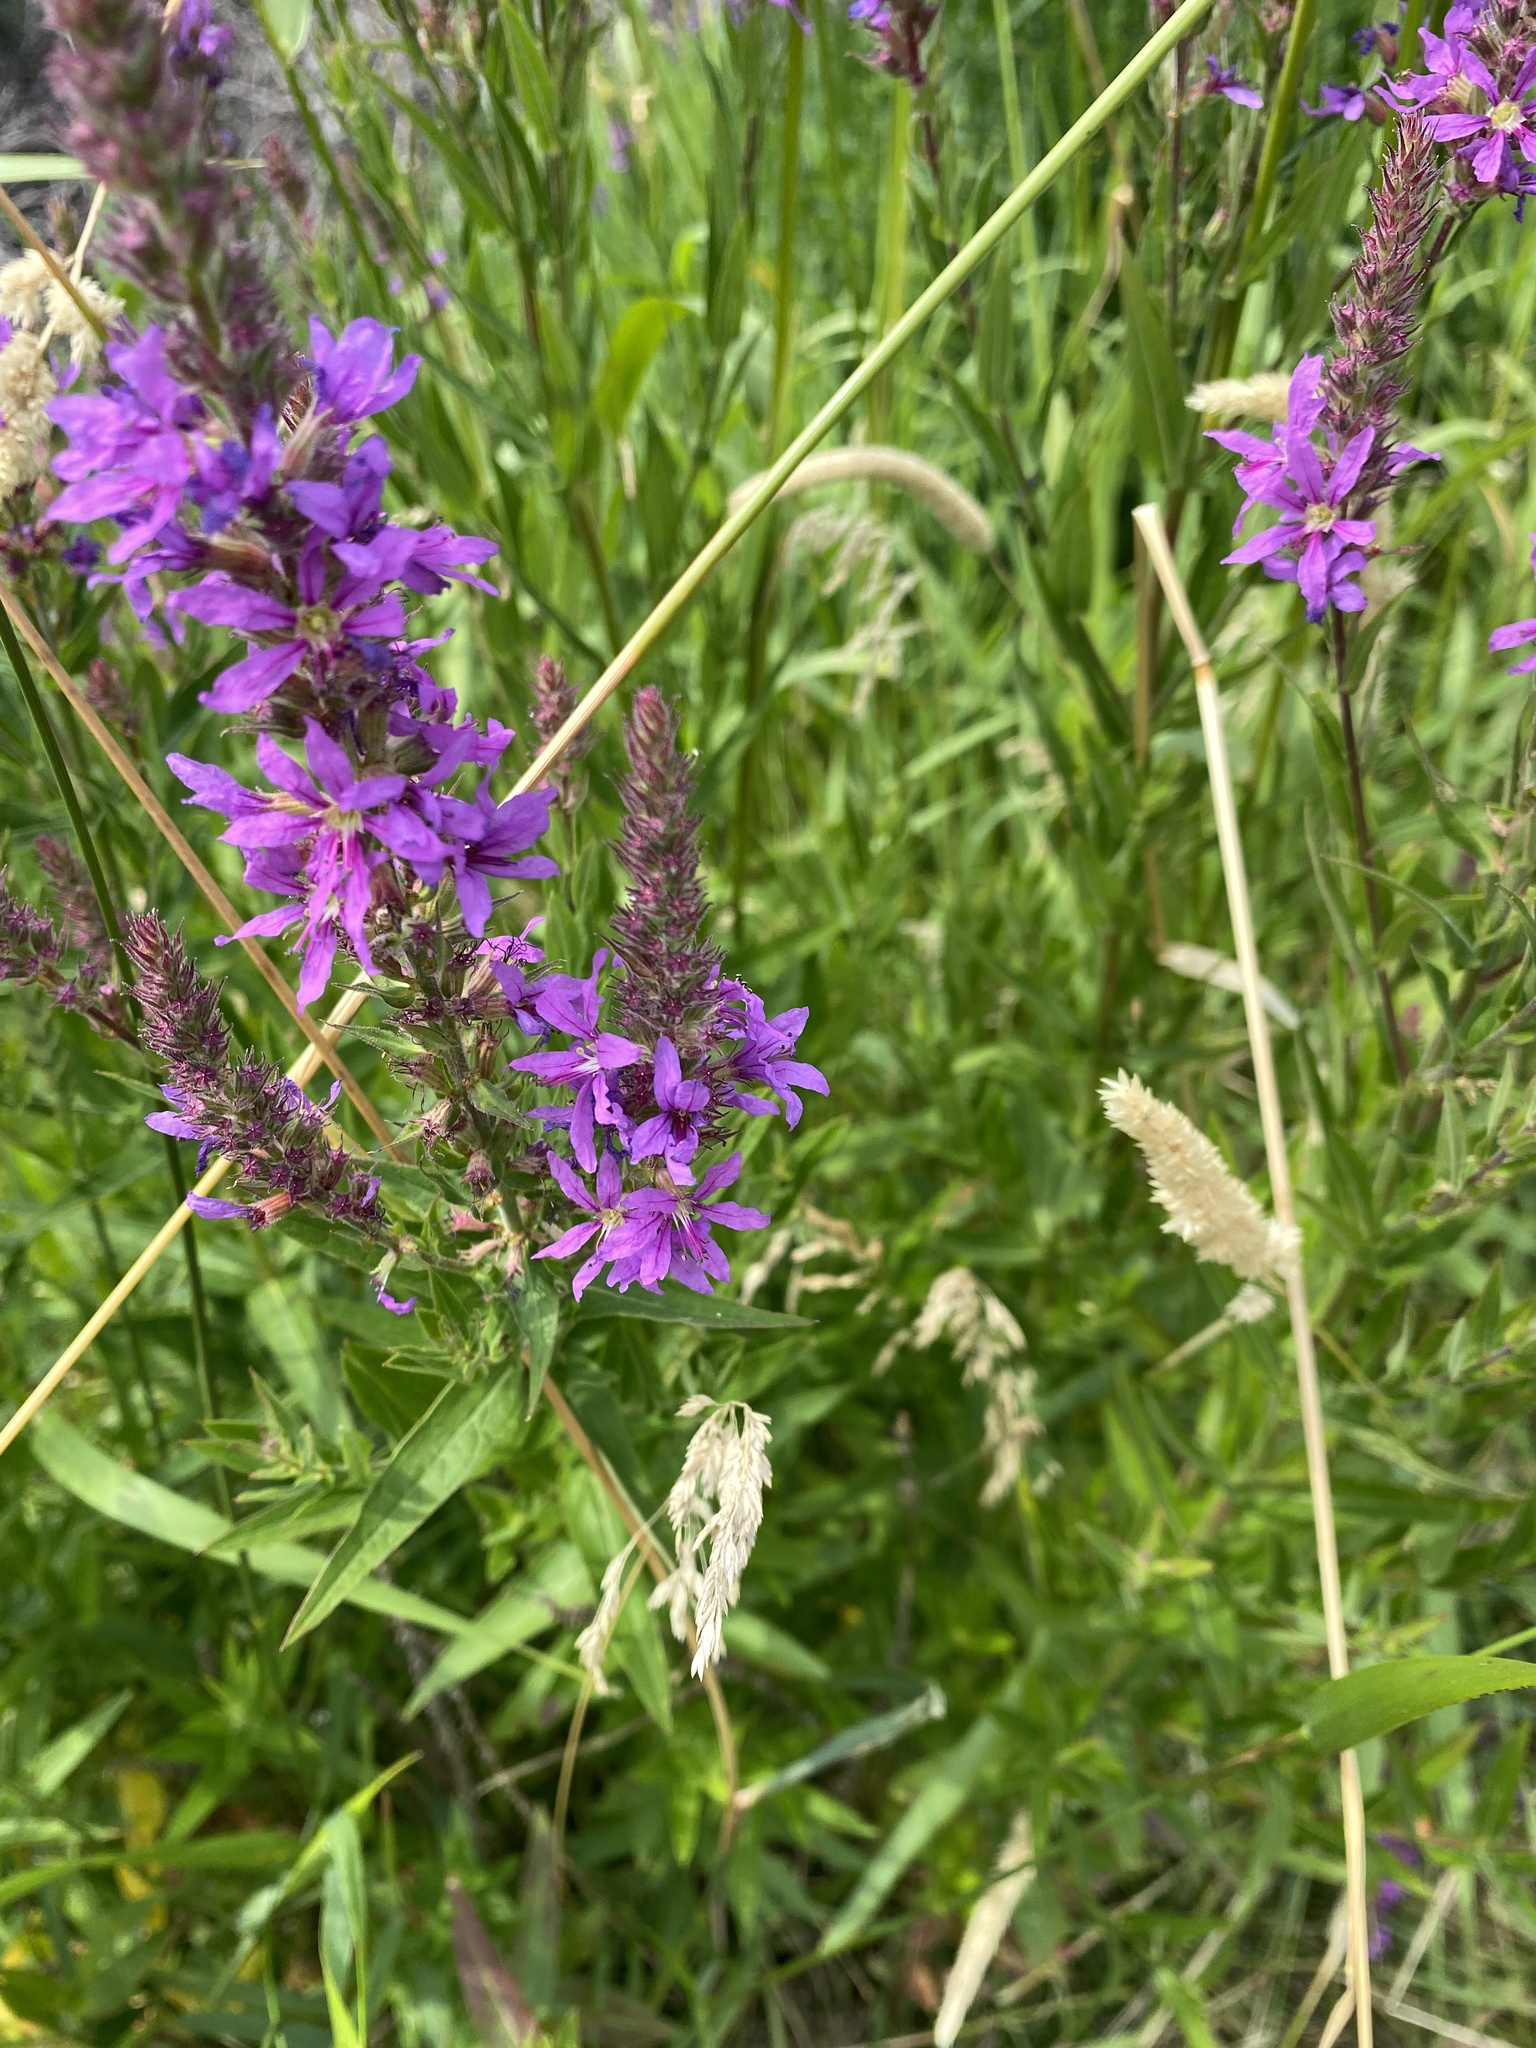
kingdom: Plantae
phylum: Tracheophyta
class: Magnoliopsida
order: Myrtales
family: Lythraceae
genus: Lythrum
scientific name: Lythrum salicaria
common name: Purple loosestrife
